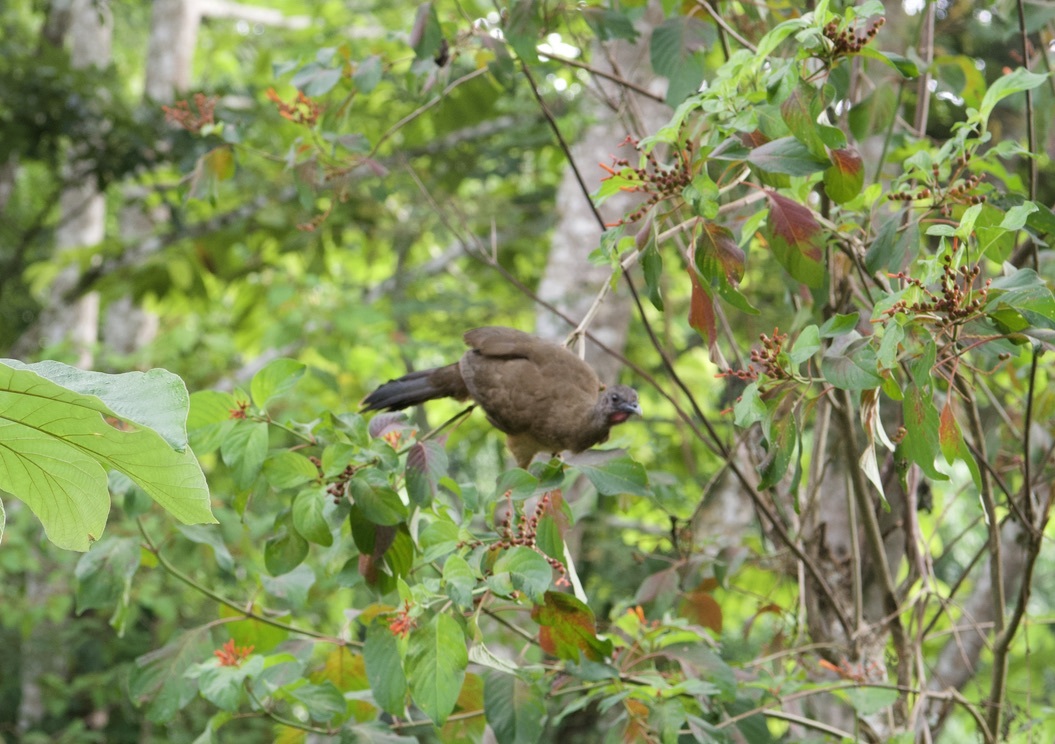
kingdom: Animalia
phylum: Chordata
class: Aves
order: Galliformes
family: Cracidae
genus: Ortalis
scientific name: Ortalis vetula
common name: Plain chachalaca
